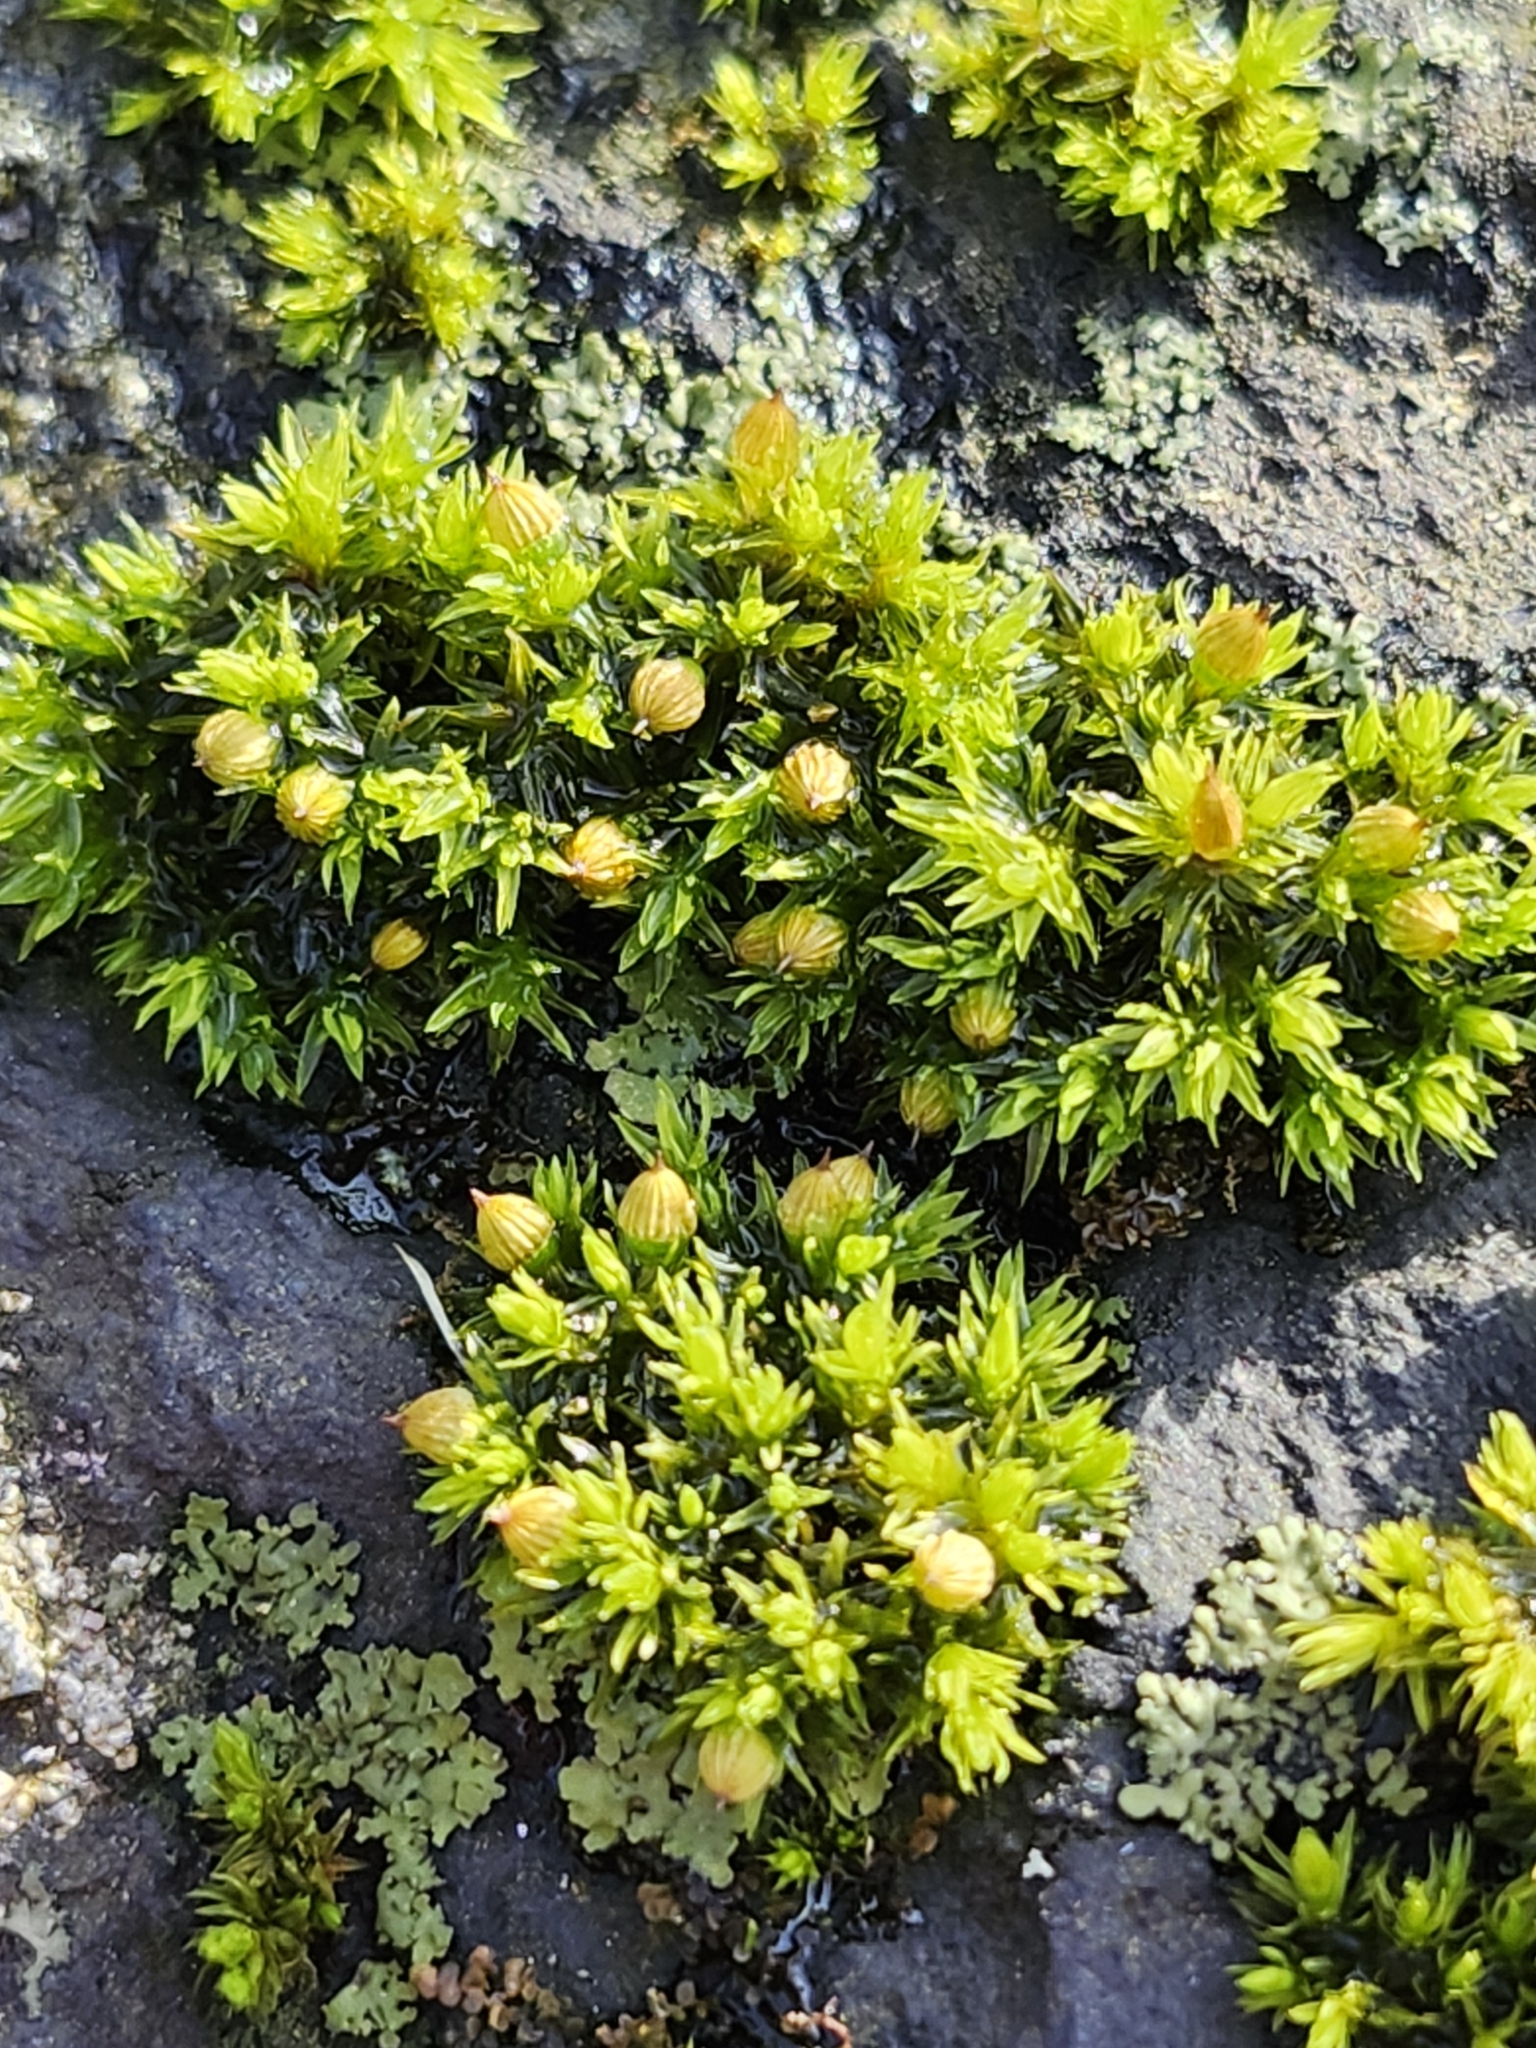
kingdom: Plantae
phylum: Bryophyta
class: Bryopsida
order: Orthotrichales
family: Orthotrichaceae
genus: Orthotrichum
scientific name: Orthotrichum stellatum
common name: Starlike bristle moss
